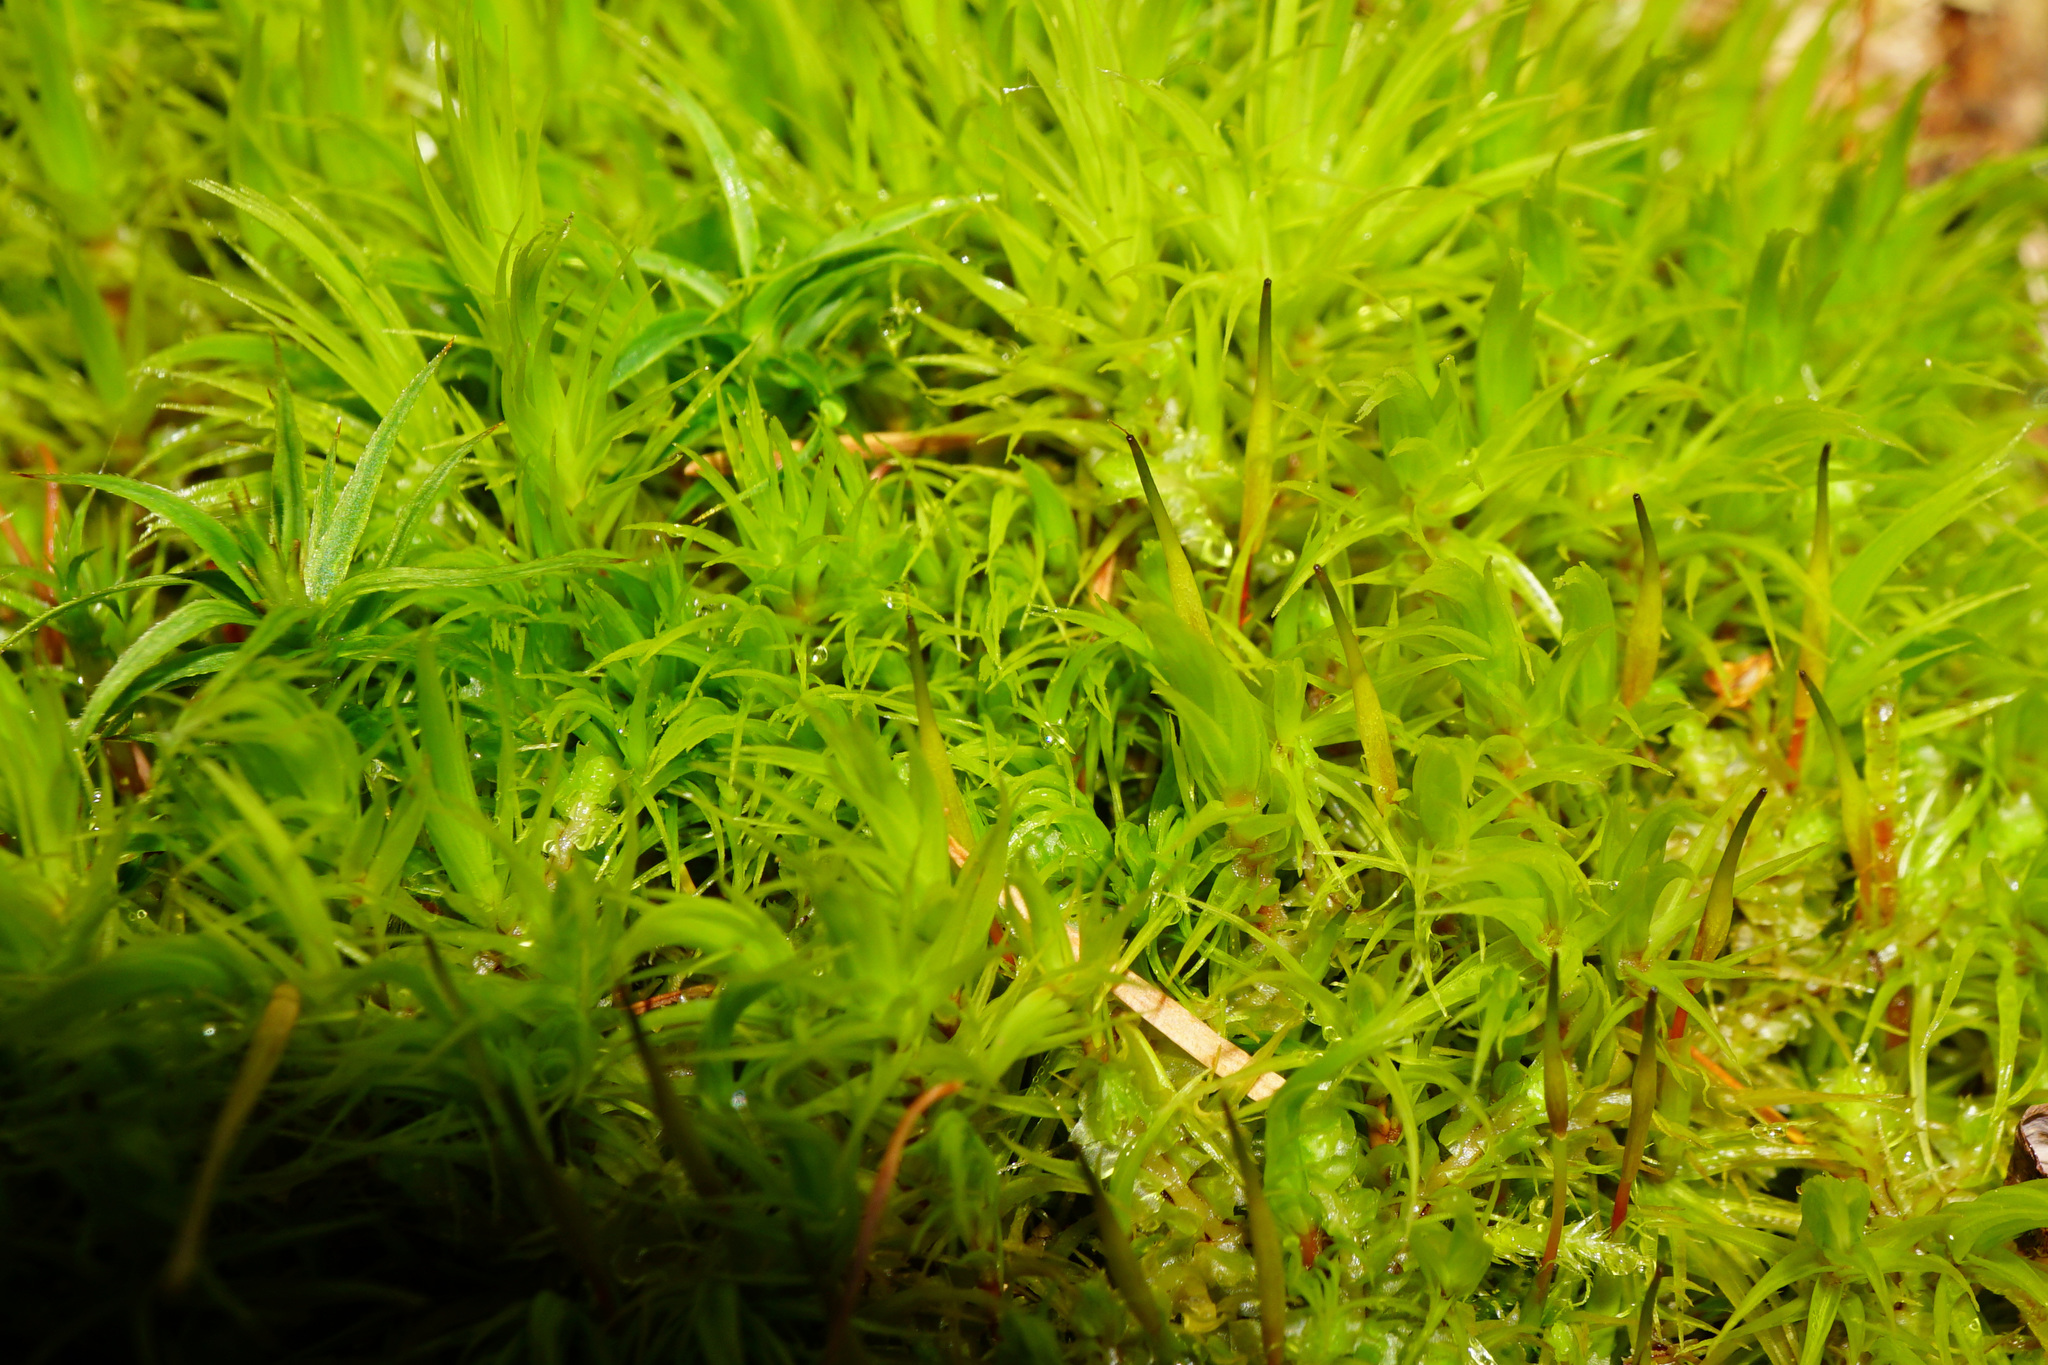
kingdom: Plantae
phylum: Bryophyta
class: Bryopsida
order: Dicranales
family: Dicranaceae
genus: Dicranum
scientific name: Dicranum scoparium
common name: Broom fork-moss
